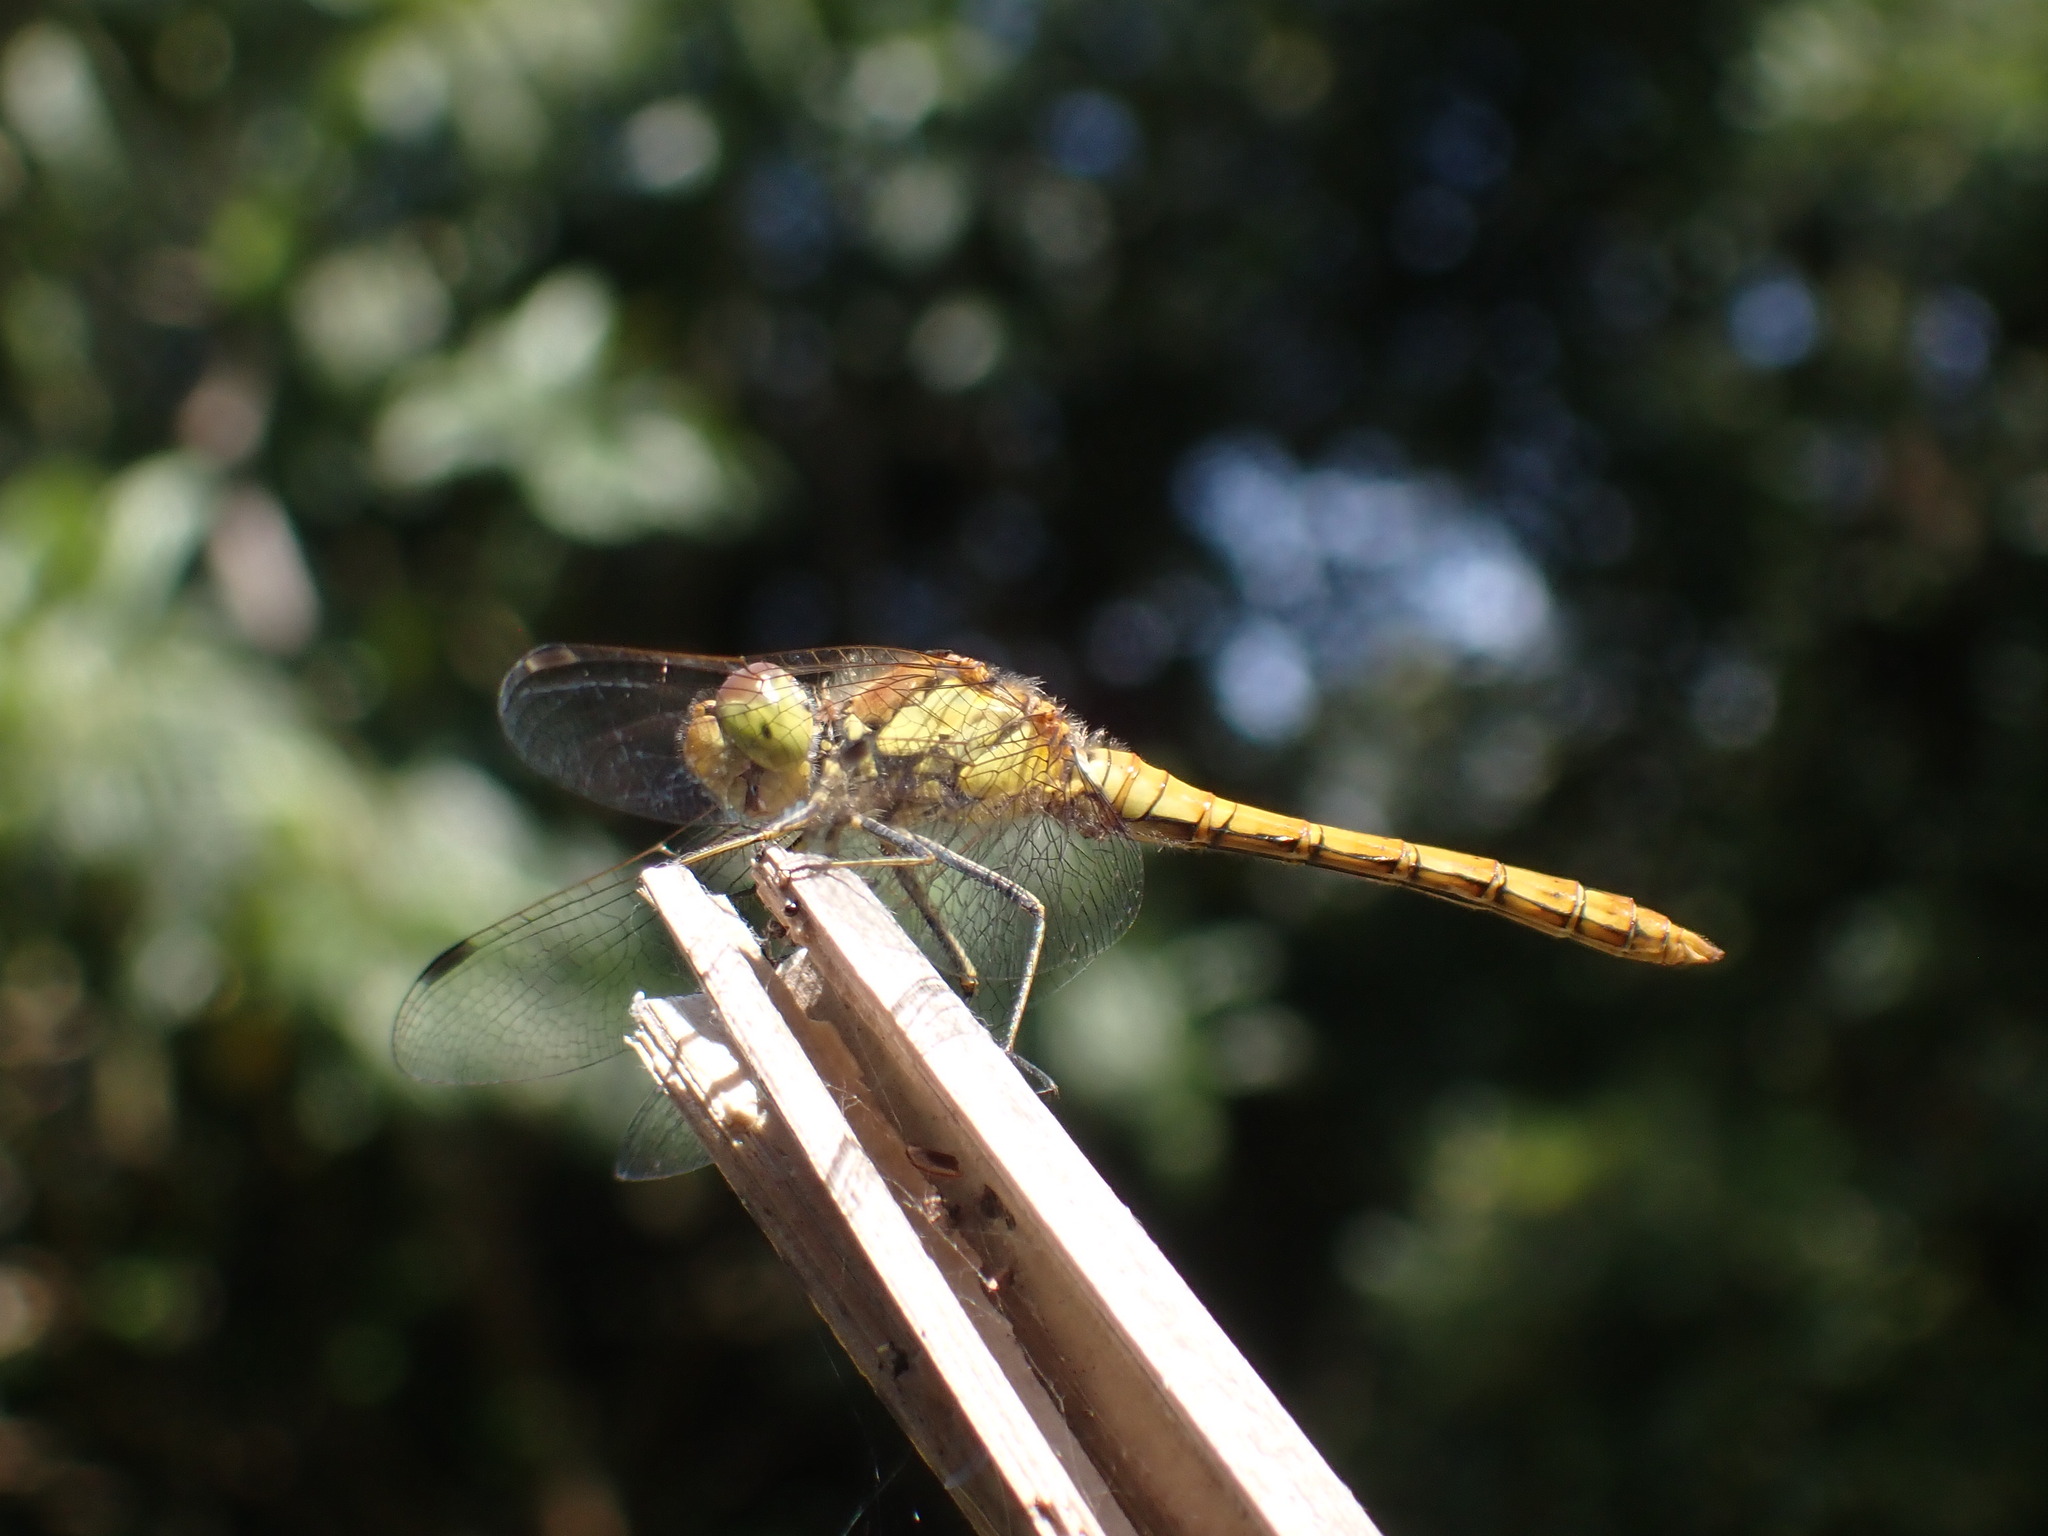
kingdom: Animalia
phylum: Arthropoda
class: Insecta
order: Odonata
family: Libellulidae
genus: Sympetrum
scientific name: Sympetrum striolatum
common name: Common darter
